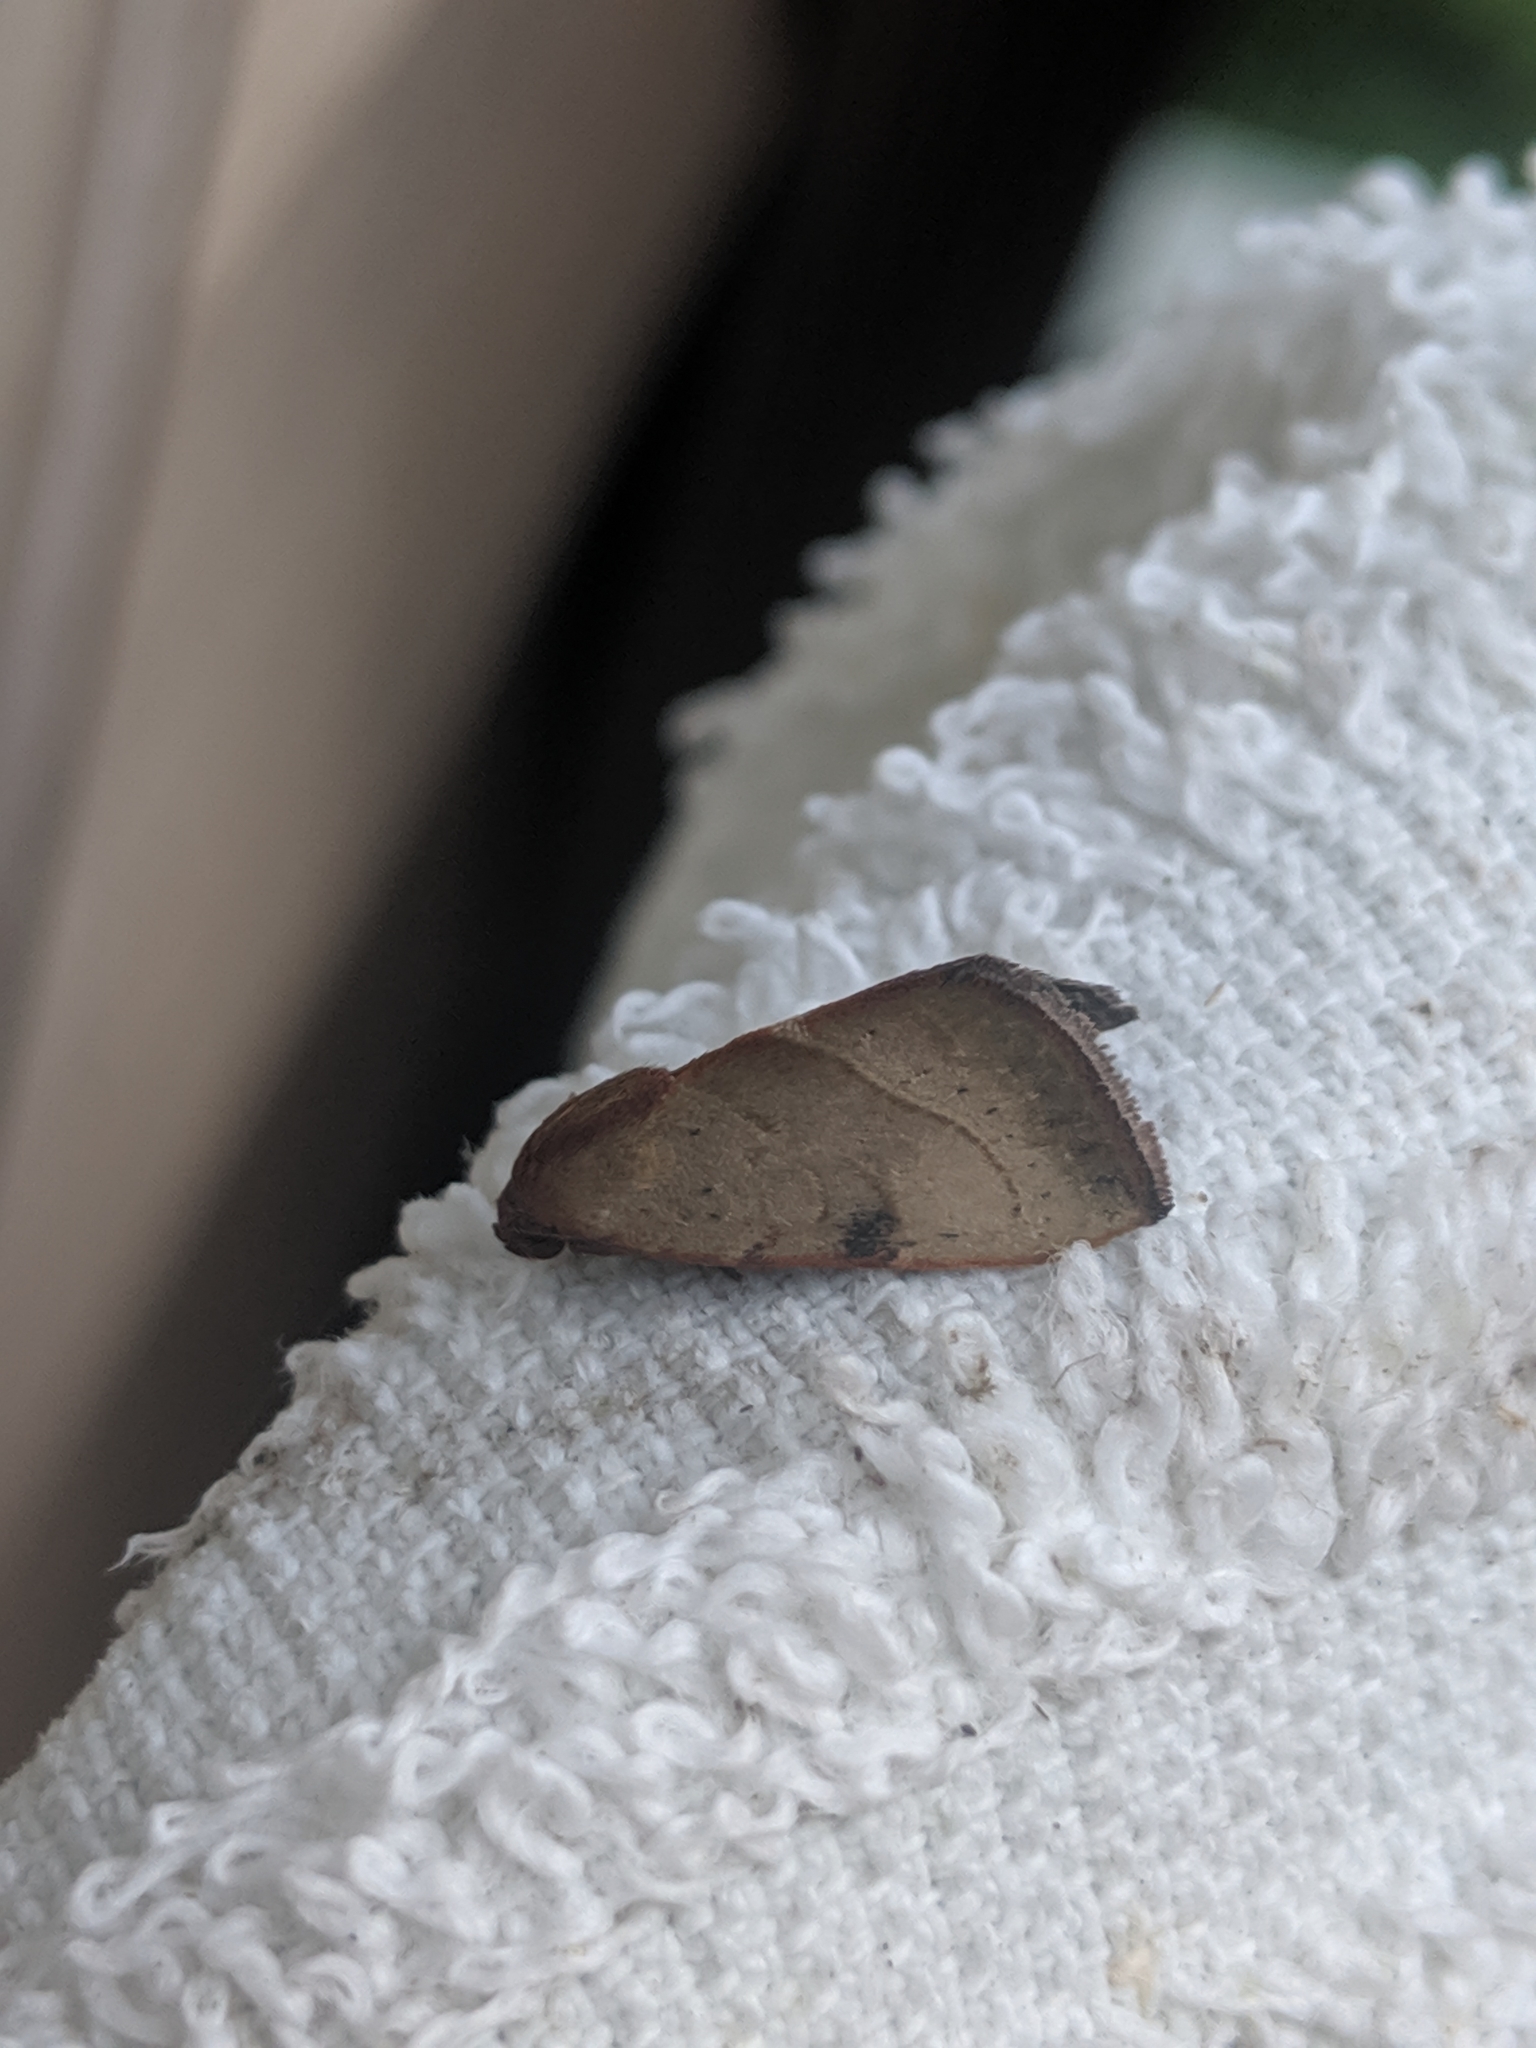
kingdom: Animalia
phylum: Arthropoda
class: Insecta
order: Lepidoptera
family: Noctuidae
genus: Galgula
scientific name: Galgula partita
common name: Wedgeling
